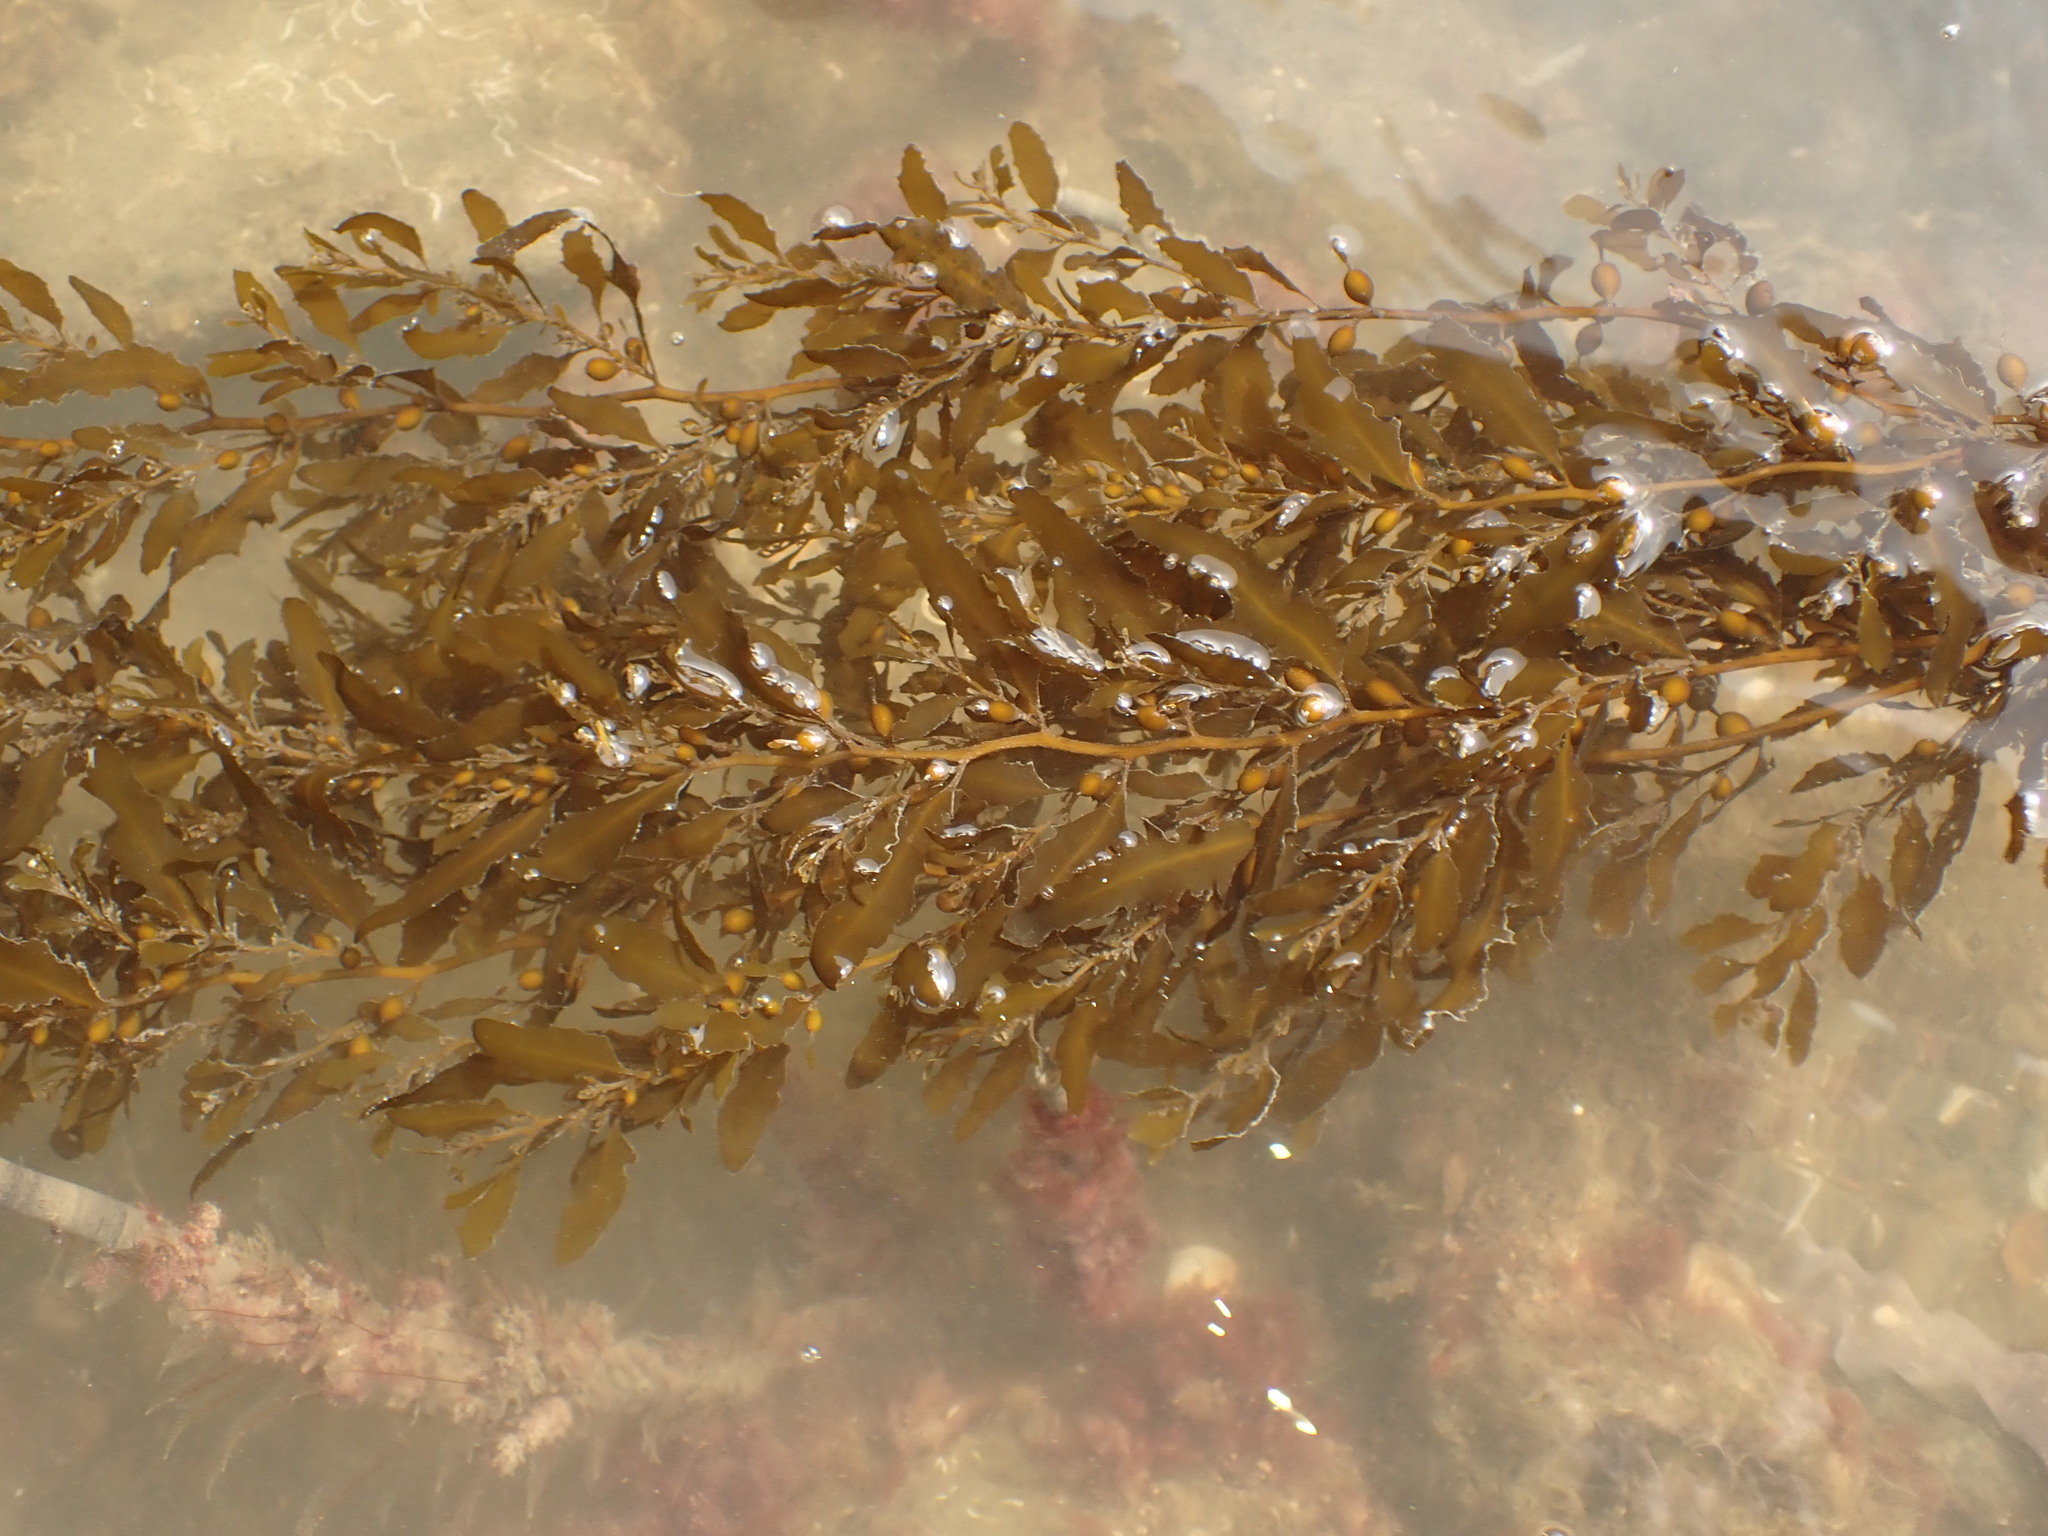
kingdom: Chromista
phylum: Ochrophyta
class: Phaeophyceae
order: Fucales
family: Sargassaceae
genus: Sargassum
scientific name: Sargassum sinclairii
